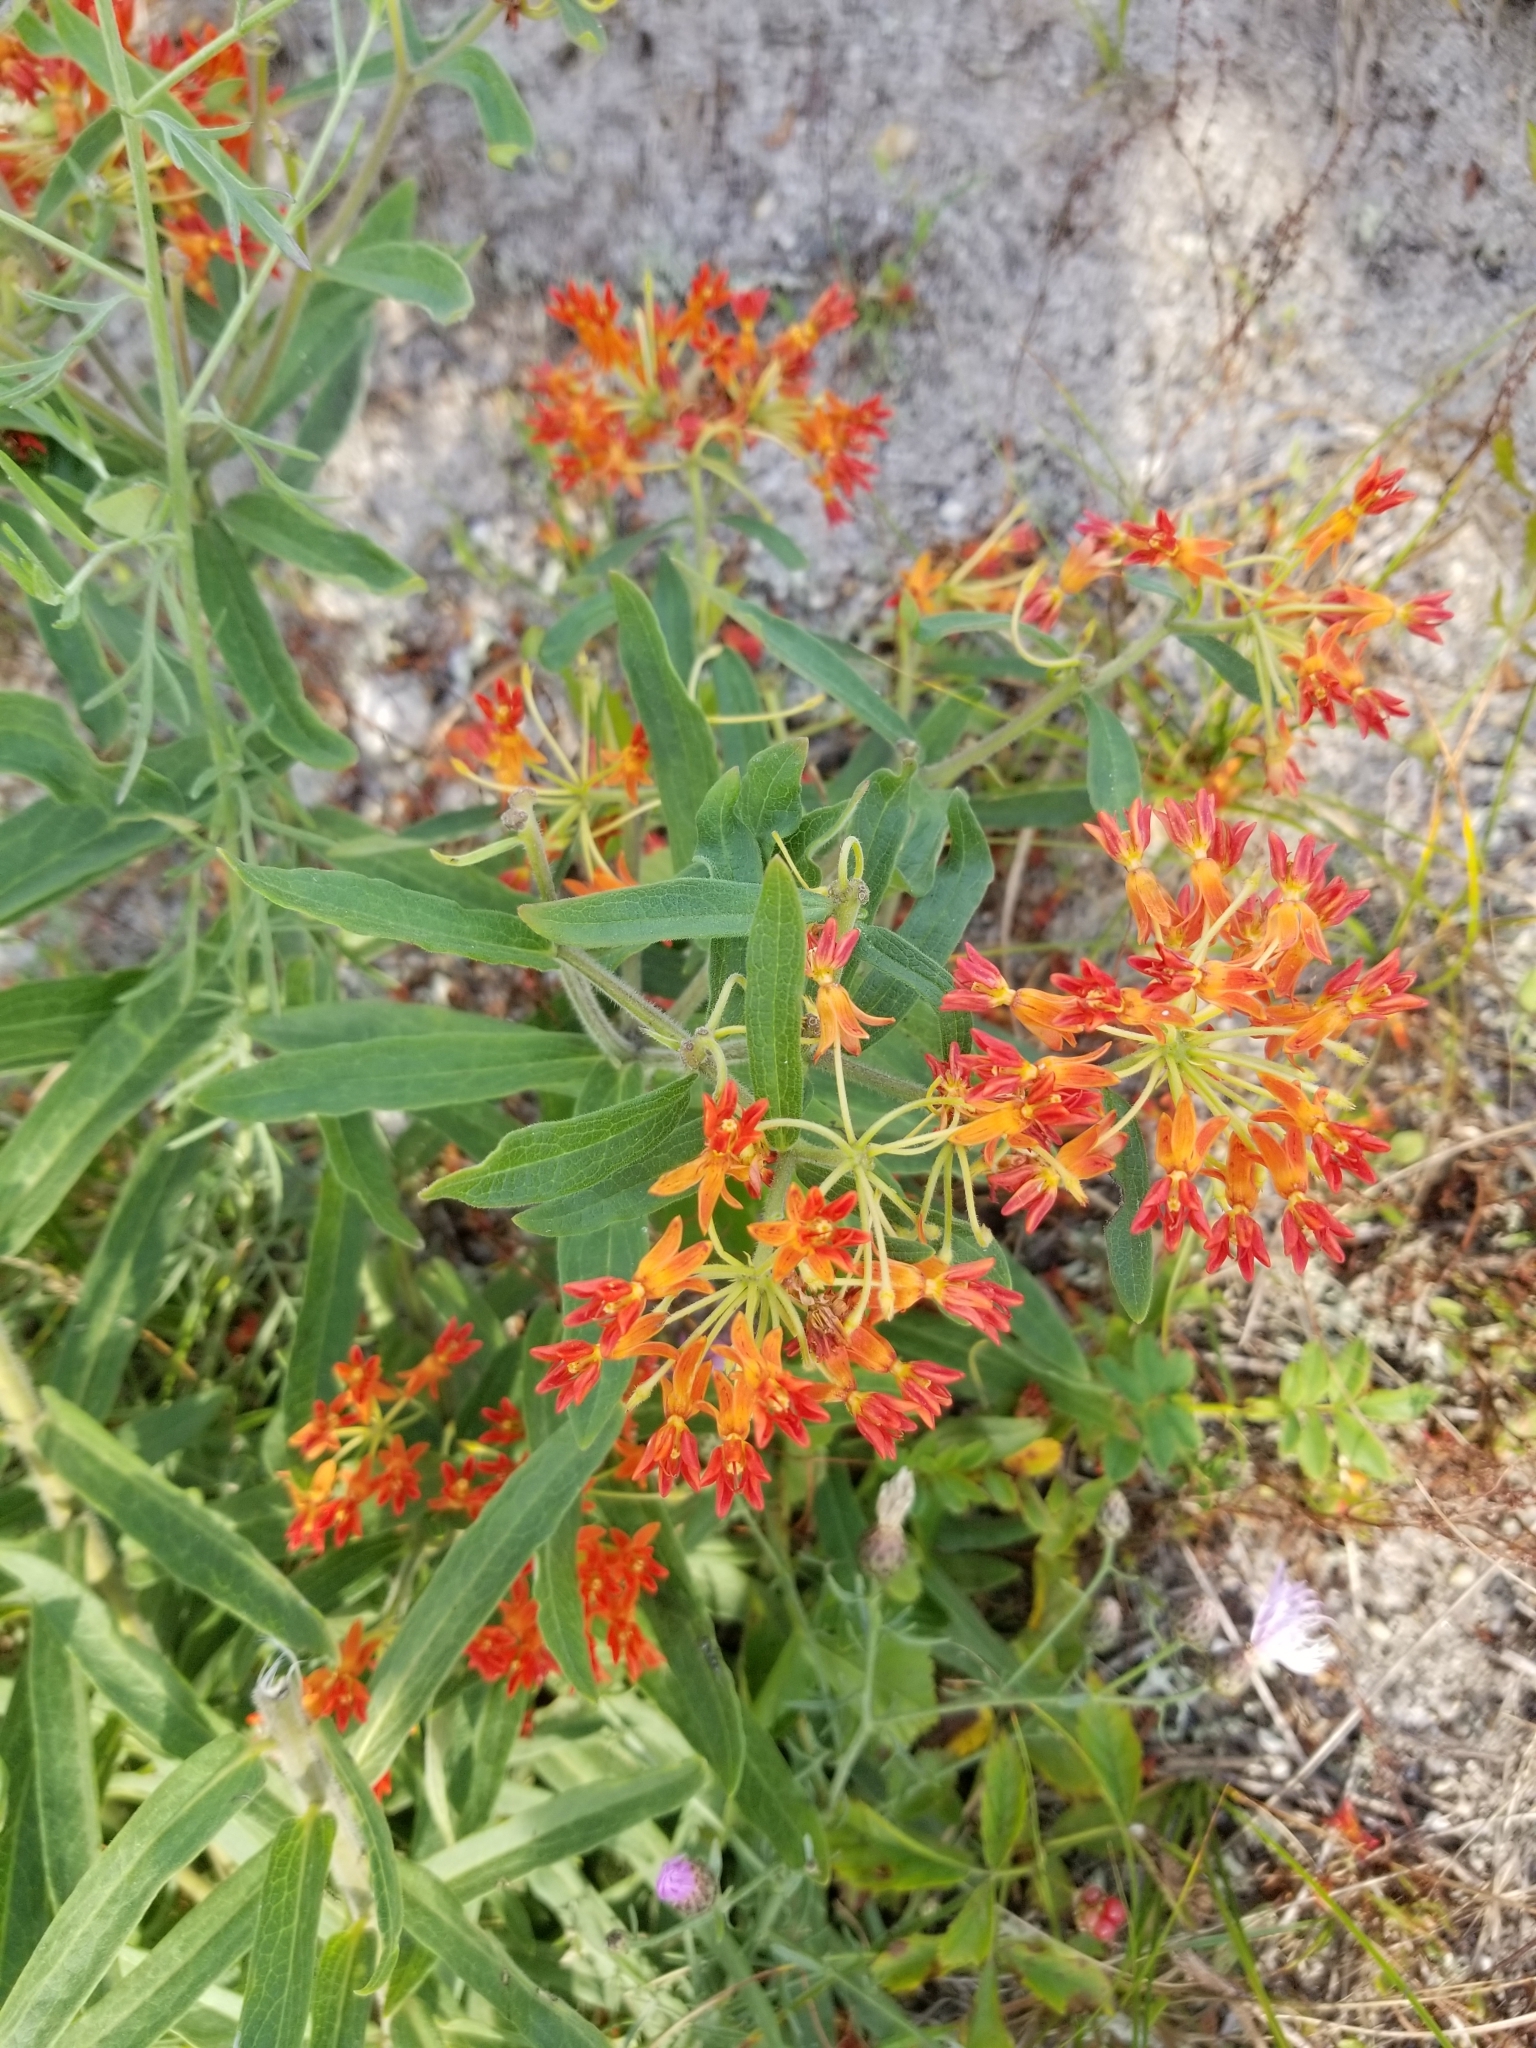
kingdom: Plantae
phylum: Tracheophyta
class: Magnoliopsida
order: Gentianales
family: Apocynaceae
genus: Asclepias
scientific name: Asclepias tuberosa
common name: Butterfly milkweed
